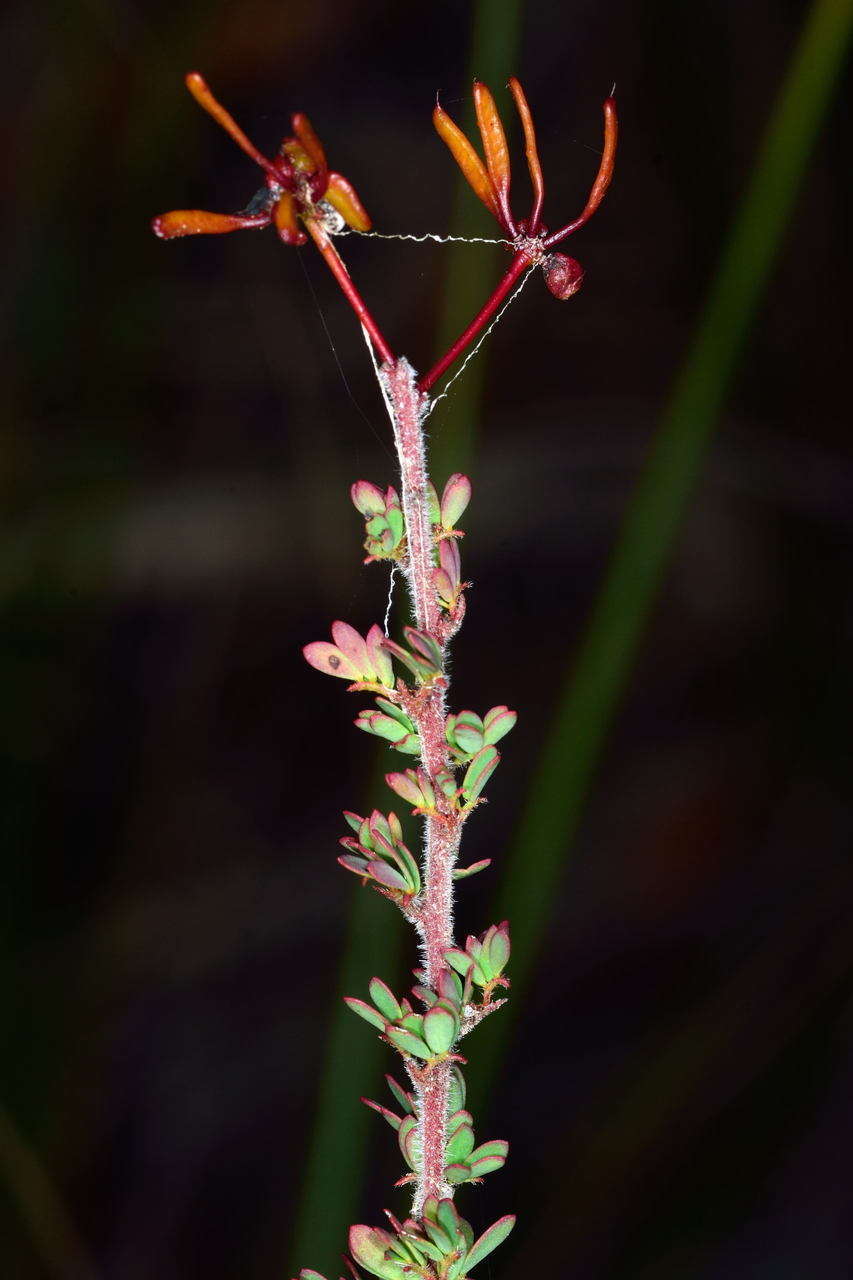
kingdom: Plantae
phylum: Tracheophyta
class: Magnoliopsida
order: Fabales
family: Fabaceae
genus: Acacia
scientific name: Acacia mitchellii
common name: Mitchell's wattle
